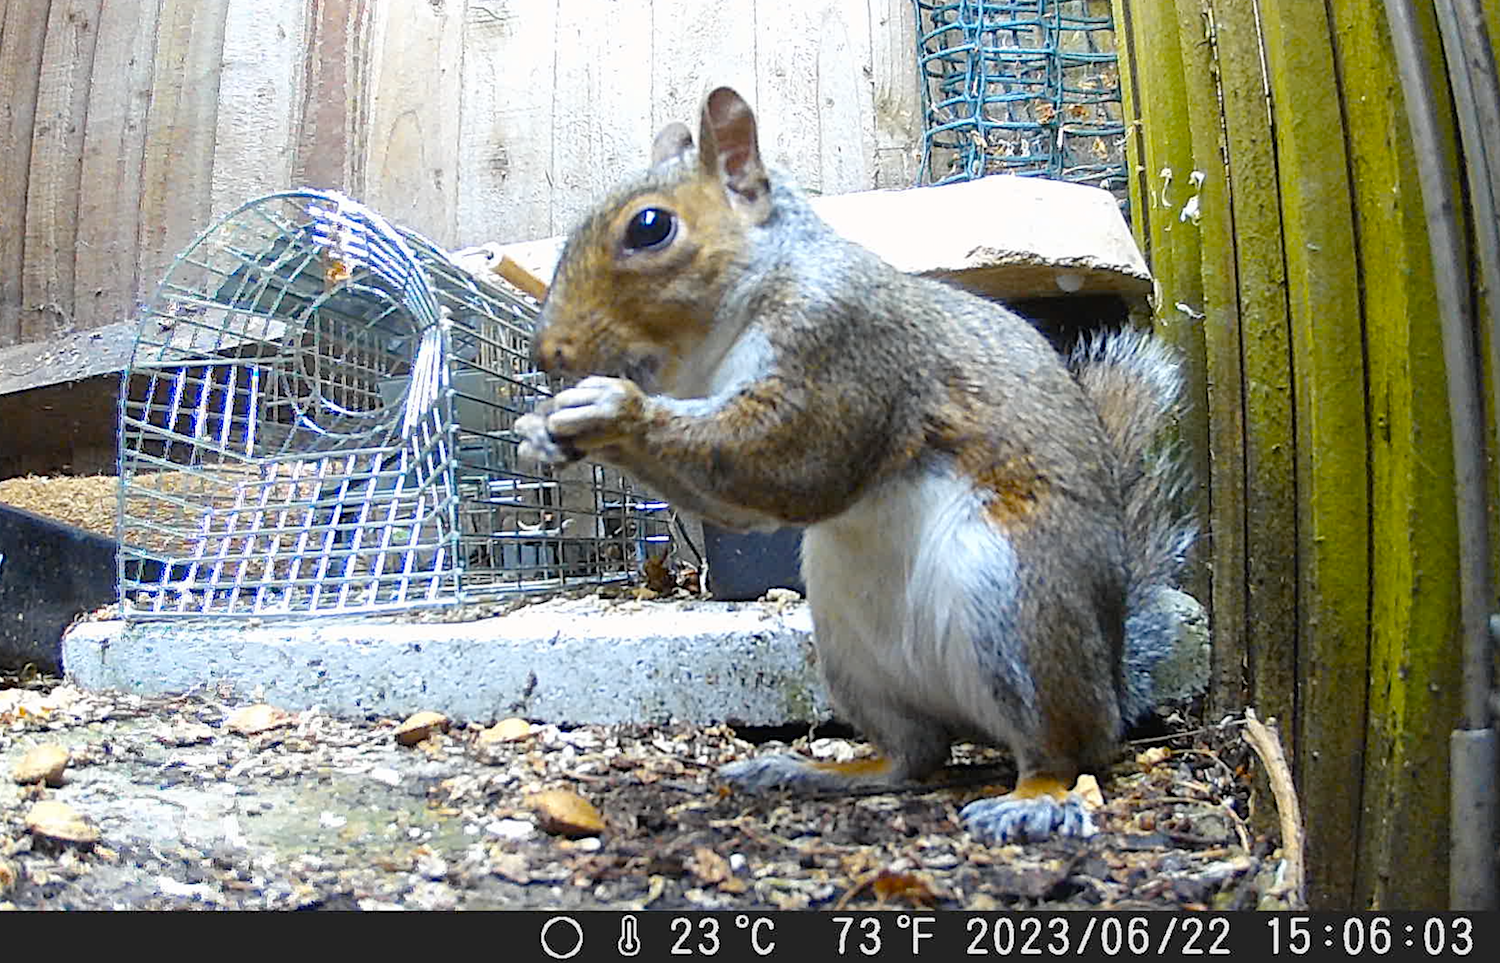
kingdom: Animalia
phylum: Chordata
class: Mammalia
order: Rodentia
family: Sciuridae
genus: Sciurus
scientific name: Sciurus carolinensis
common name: Eastern gray squirrel
